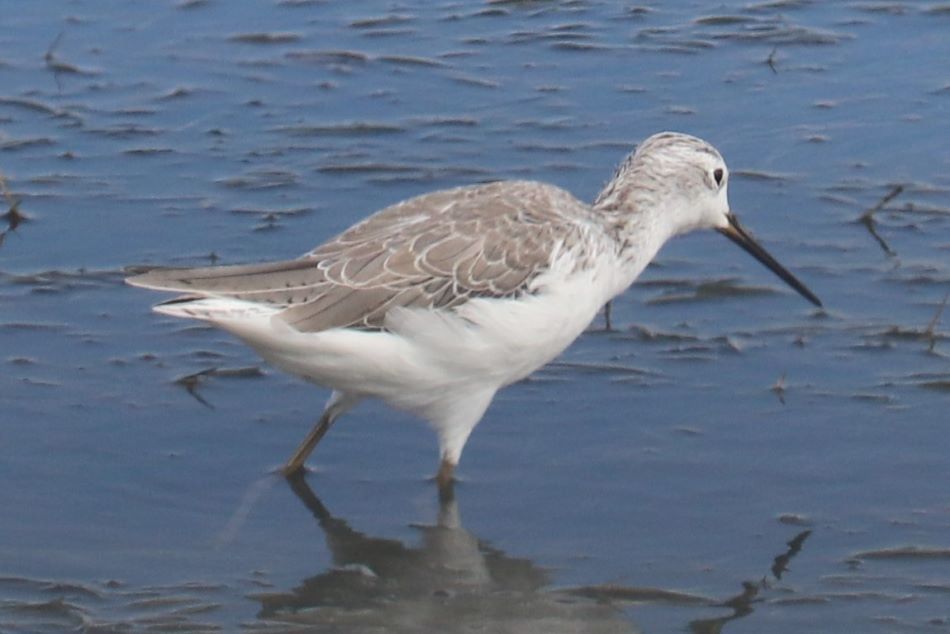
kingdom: Animalia
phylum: Chordata
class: Aves
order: Charadriiformes
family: Scolopacidae
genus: Tringa
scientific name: Tringa stagnatilis
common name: Marsh sandpiper
